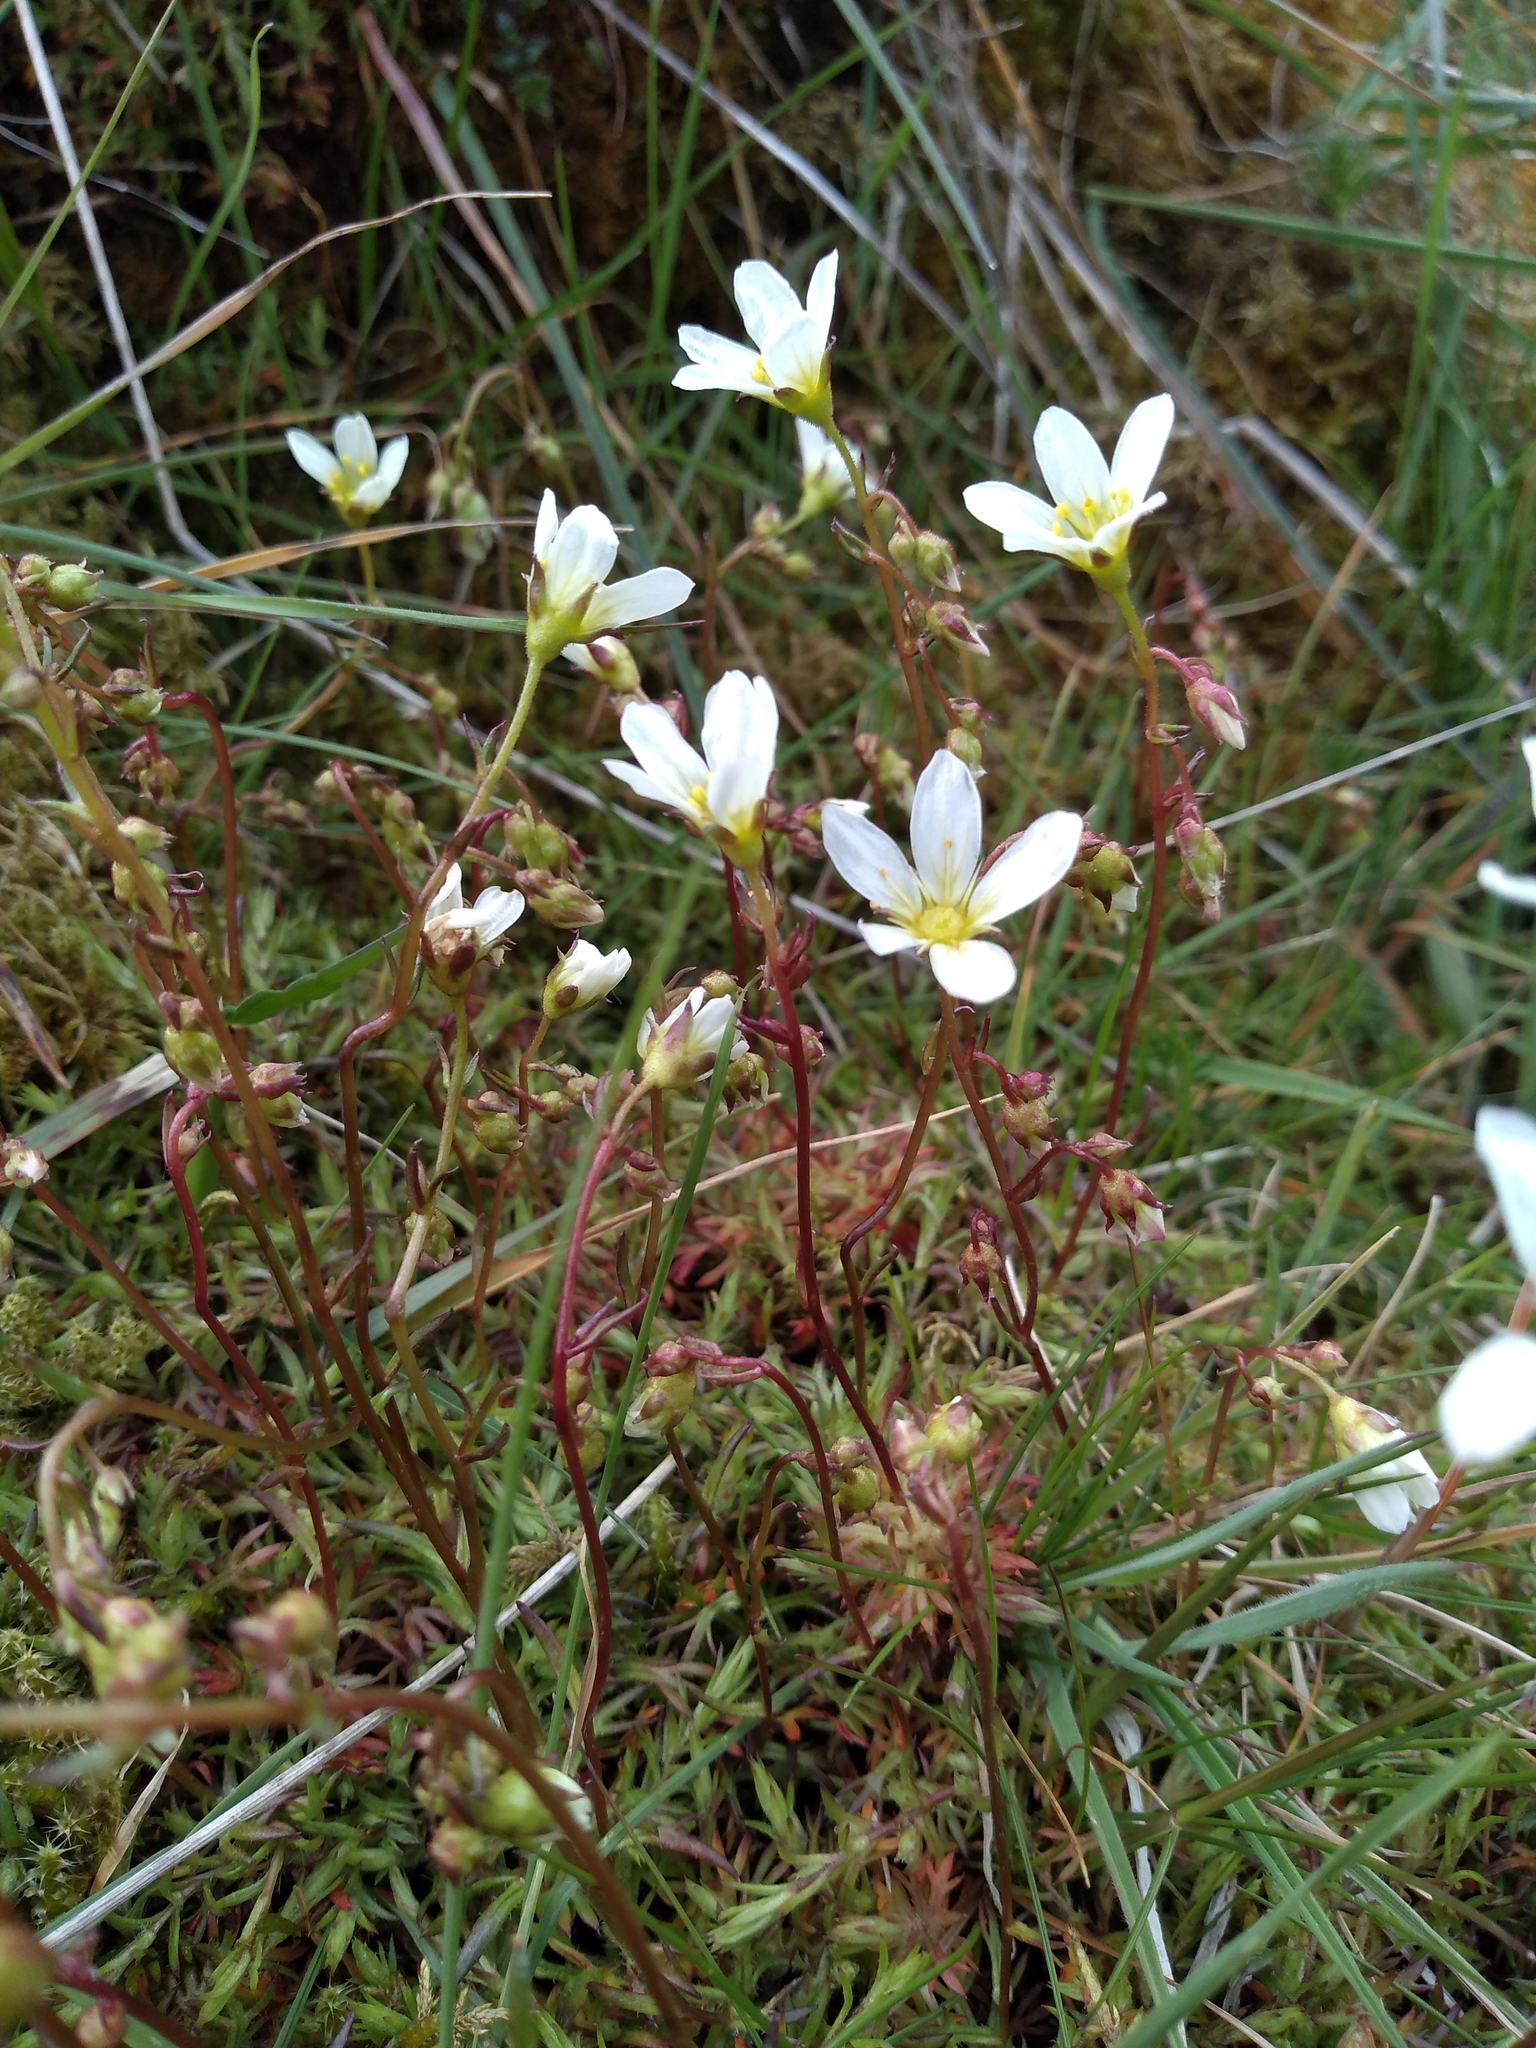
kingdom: Plantae
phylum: Tracheophyta
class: Magnoliopsida
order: Saxifragales
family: Saxifragaceae
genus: Saxifraga
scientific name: Saxifraga hypnoides
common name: Mossy saxifrage
